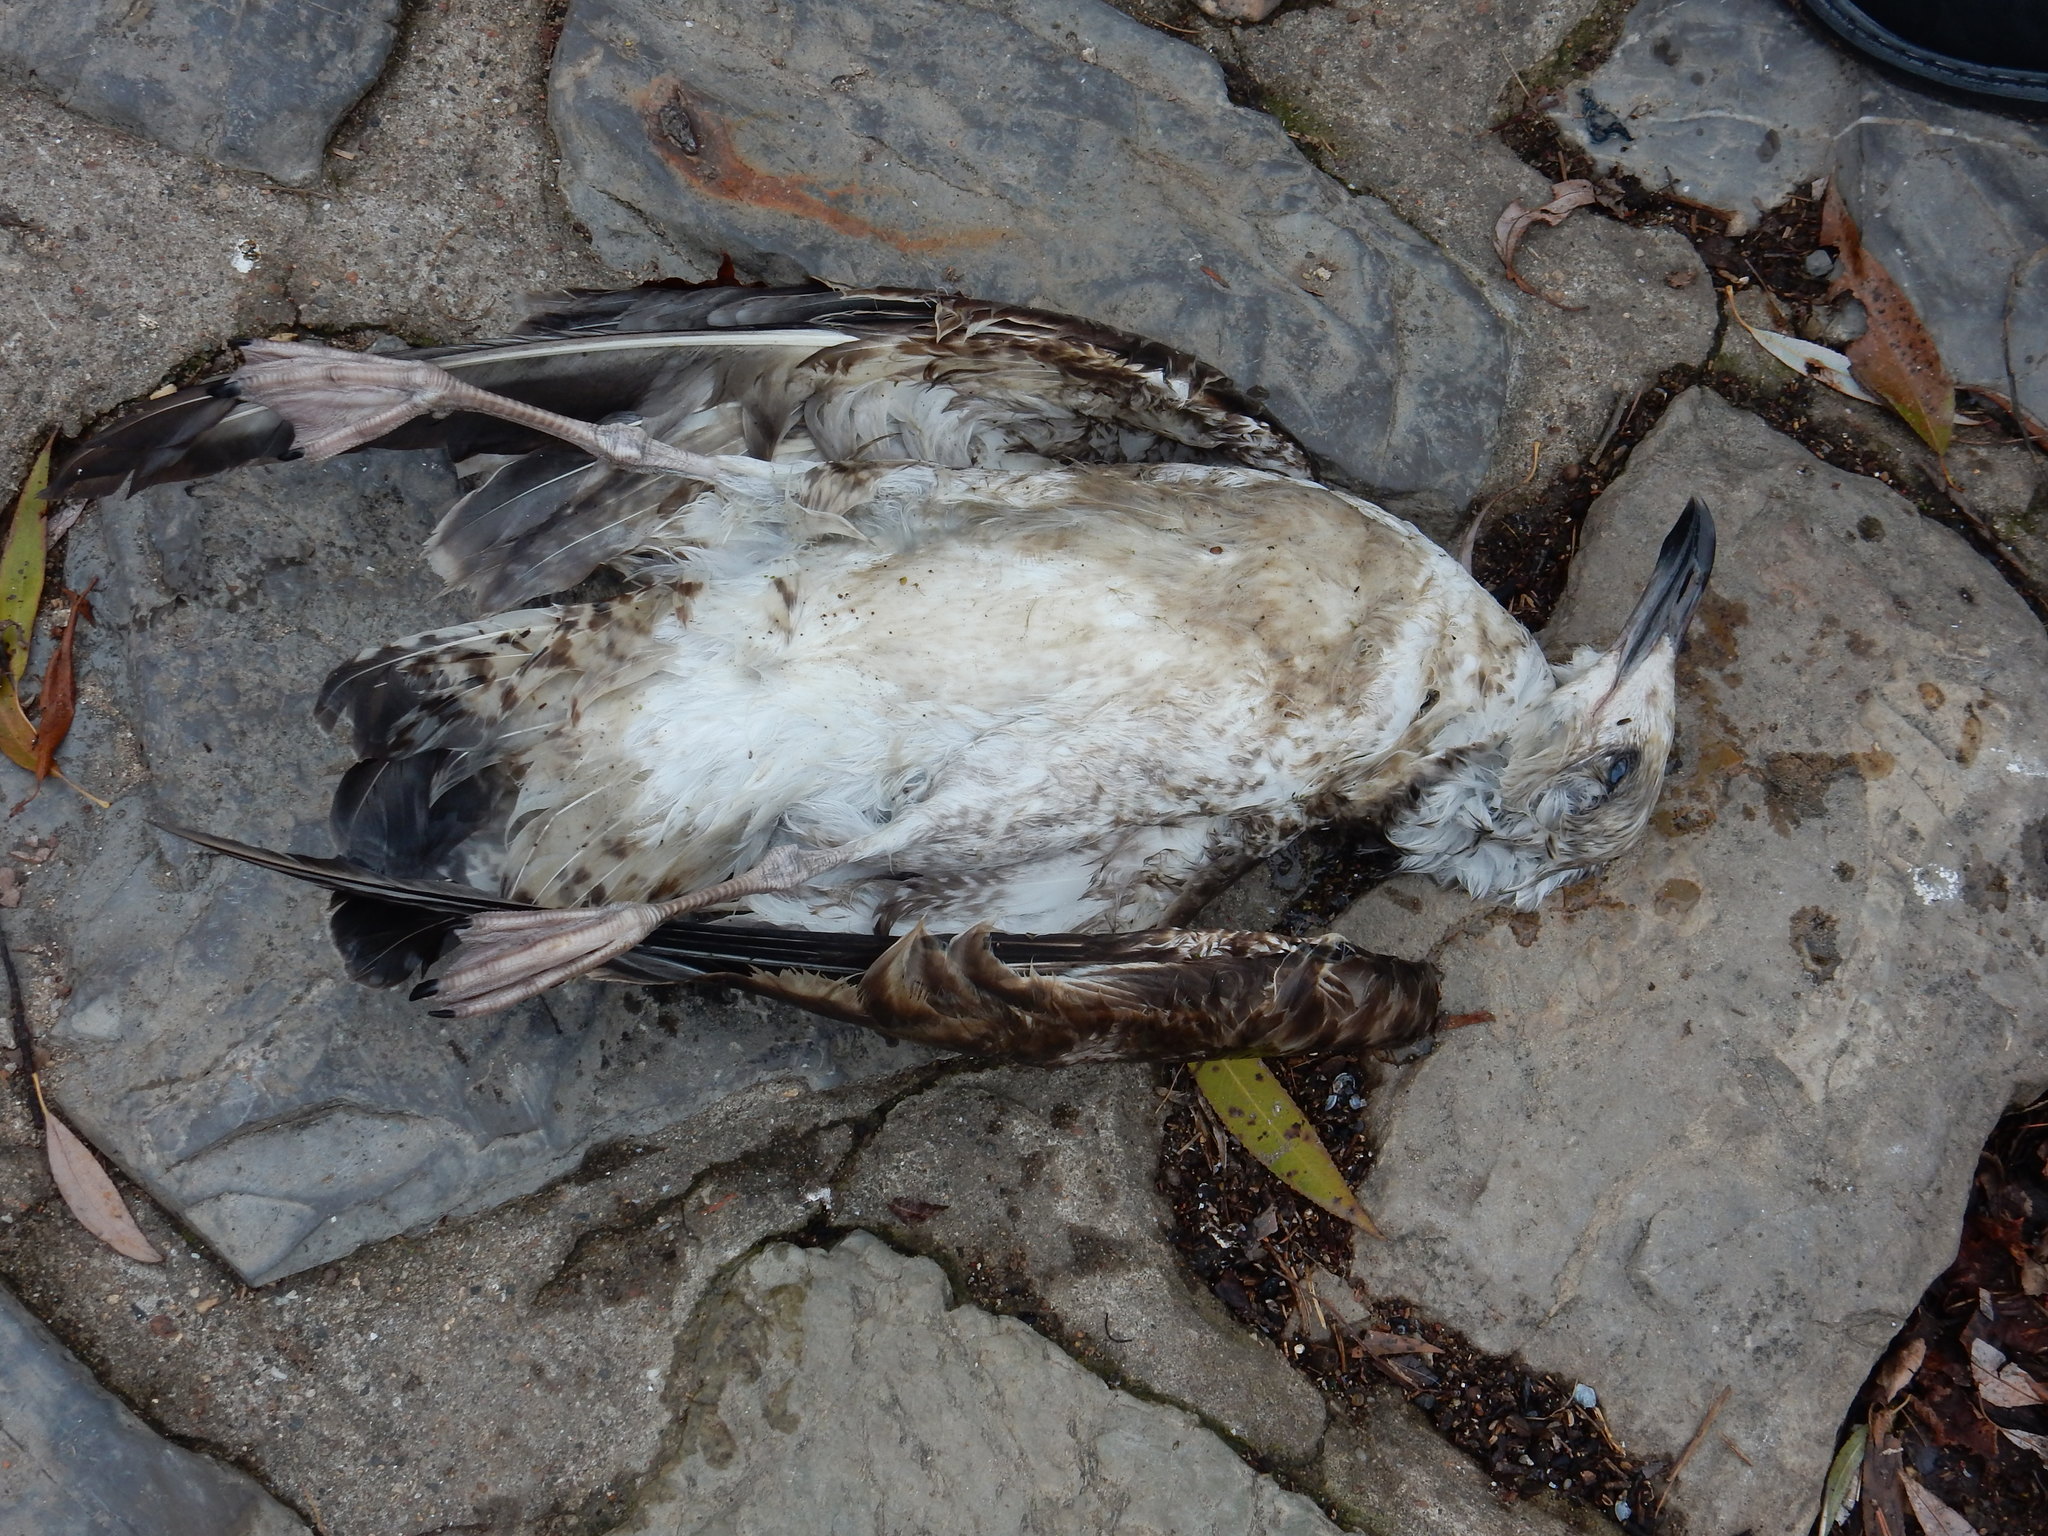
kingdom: Animalia
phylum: Chordata
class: Aves
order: Charadriiformes
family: Laridae
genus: Larus
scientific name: Larus cachinnans
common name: Caspian gull
